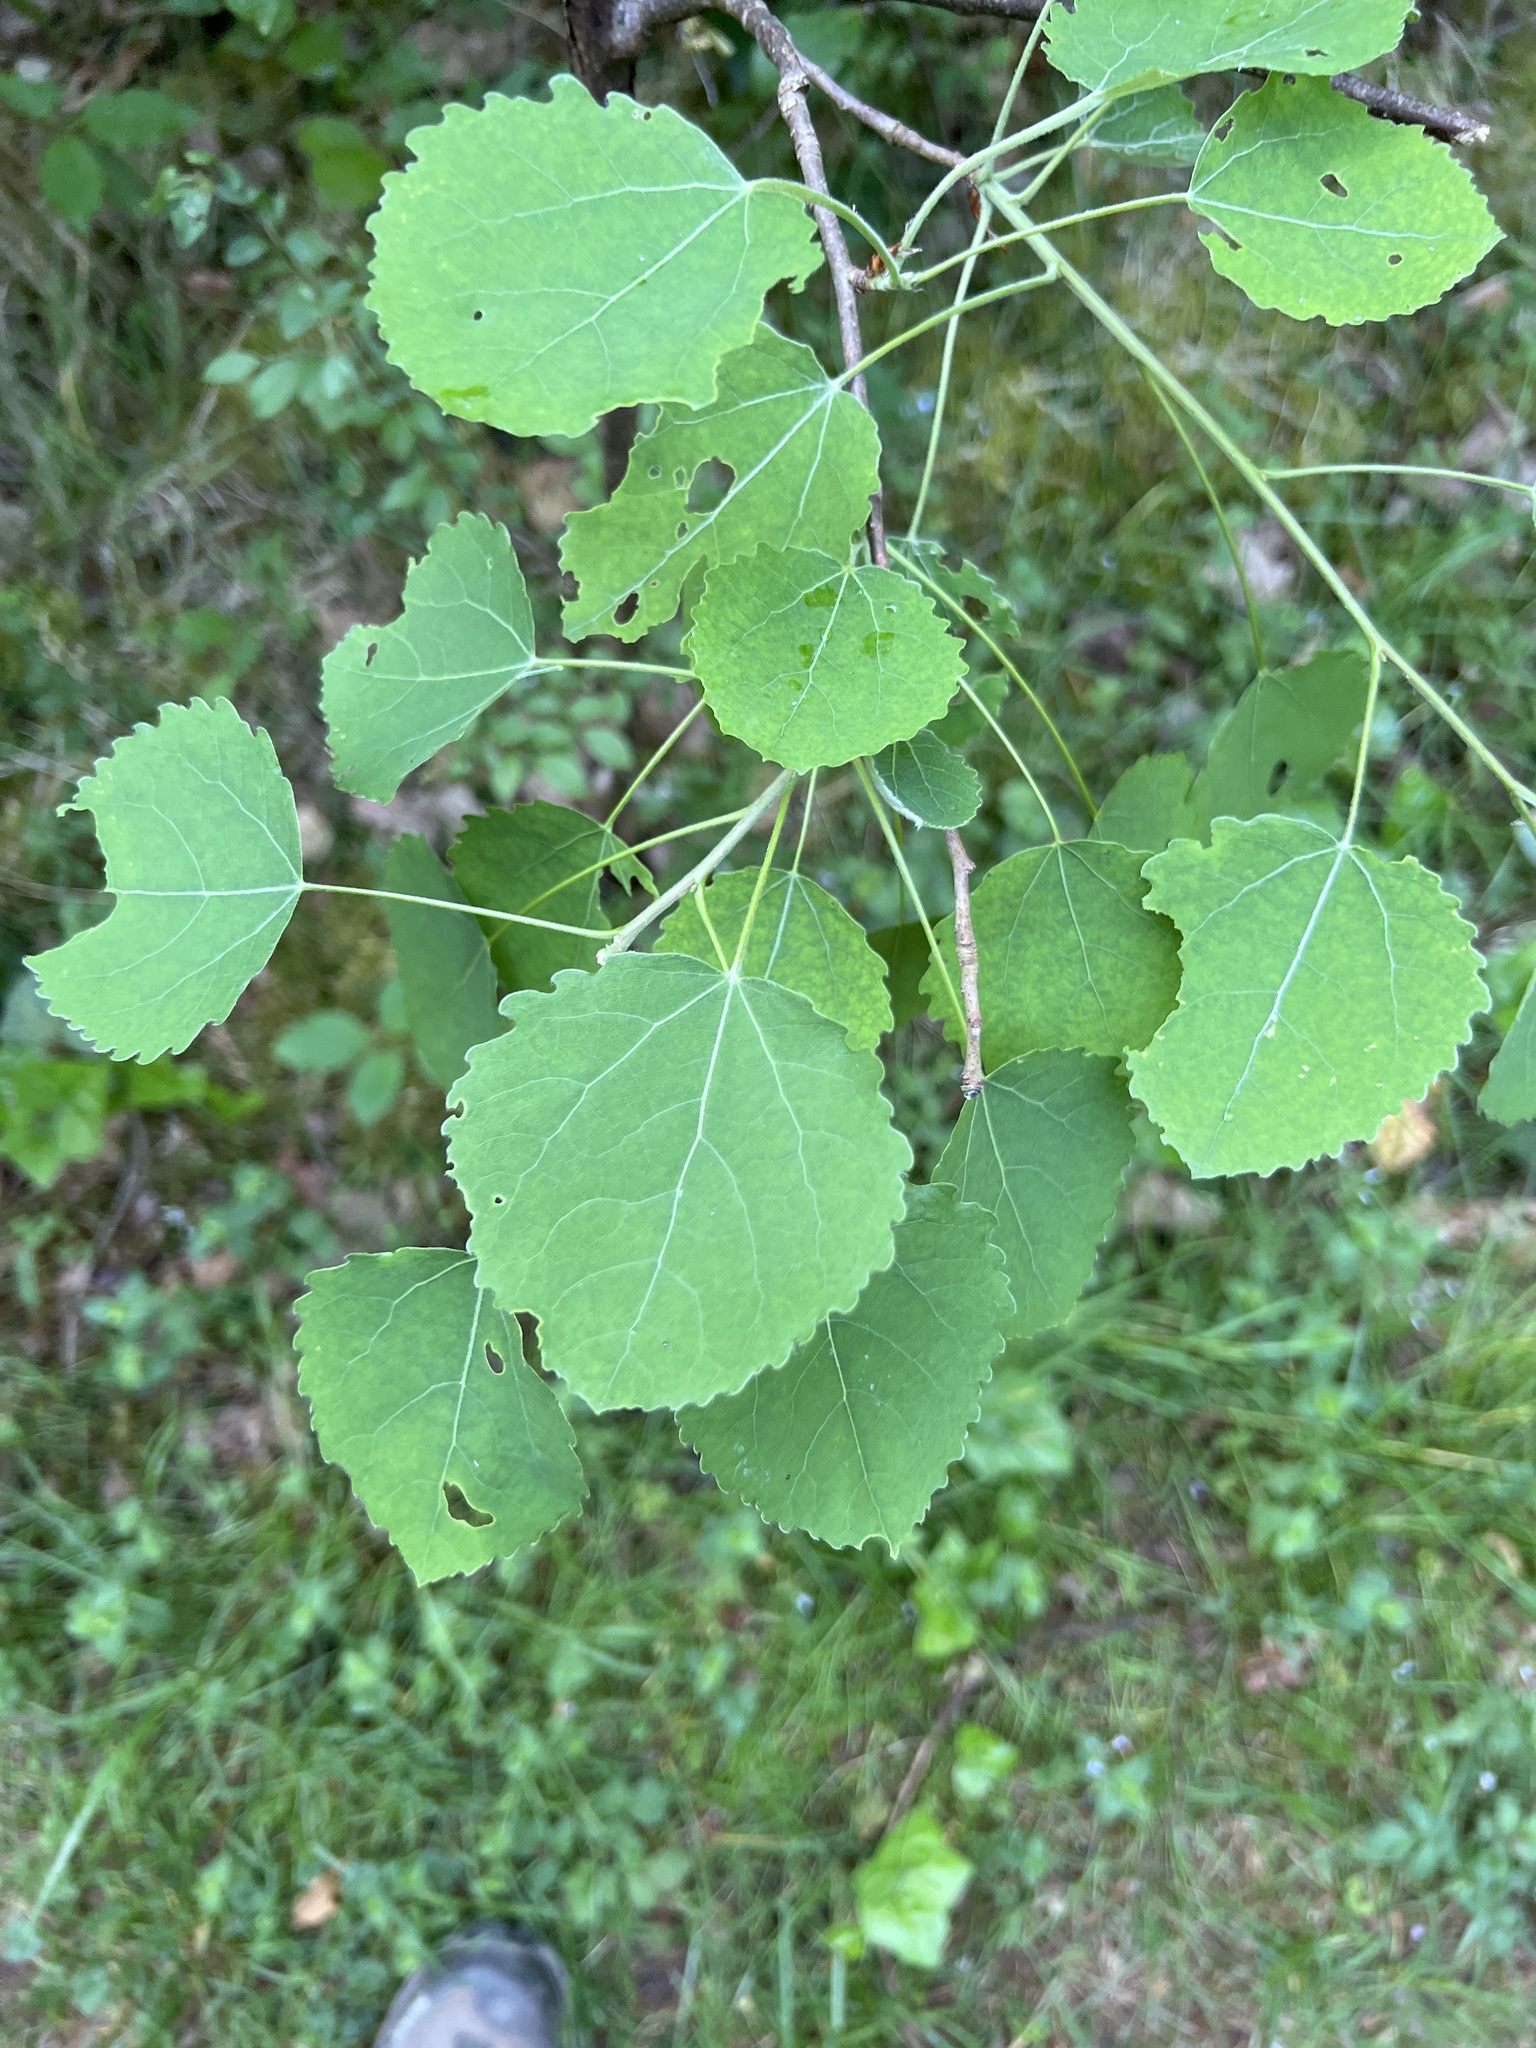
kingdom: Plantae
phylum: Tracheophyta
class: Magnoliopsida
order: Malpighiales
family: Salicaceae
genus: Populus
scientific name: Populus tremula
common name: European aspen
